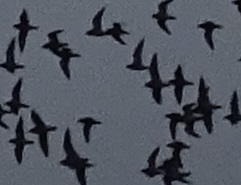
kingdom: Animalia
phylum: Chordata
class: Aves
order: Charadriiformes
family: Charadriidae
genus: Pluvialis
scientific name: Pluvialis apricaria
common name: European golden plover
